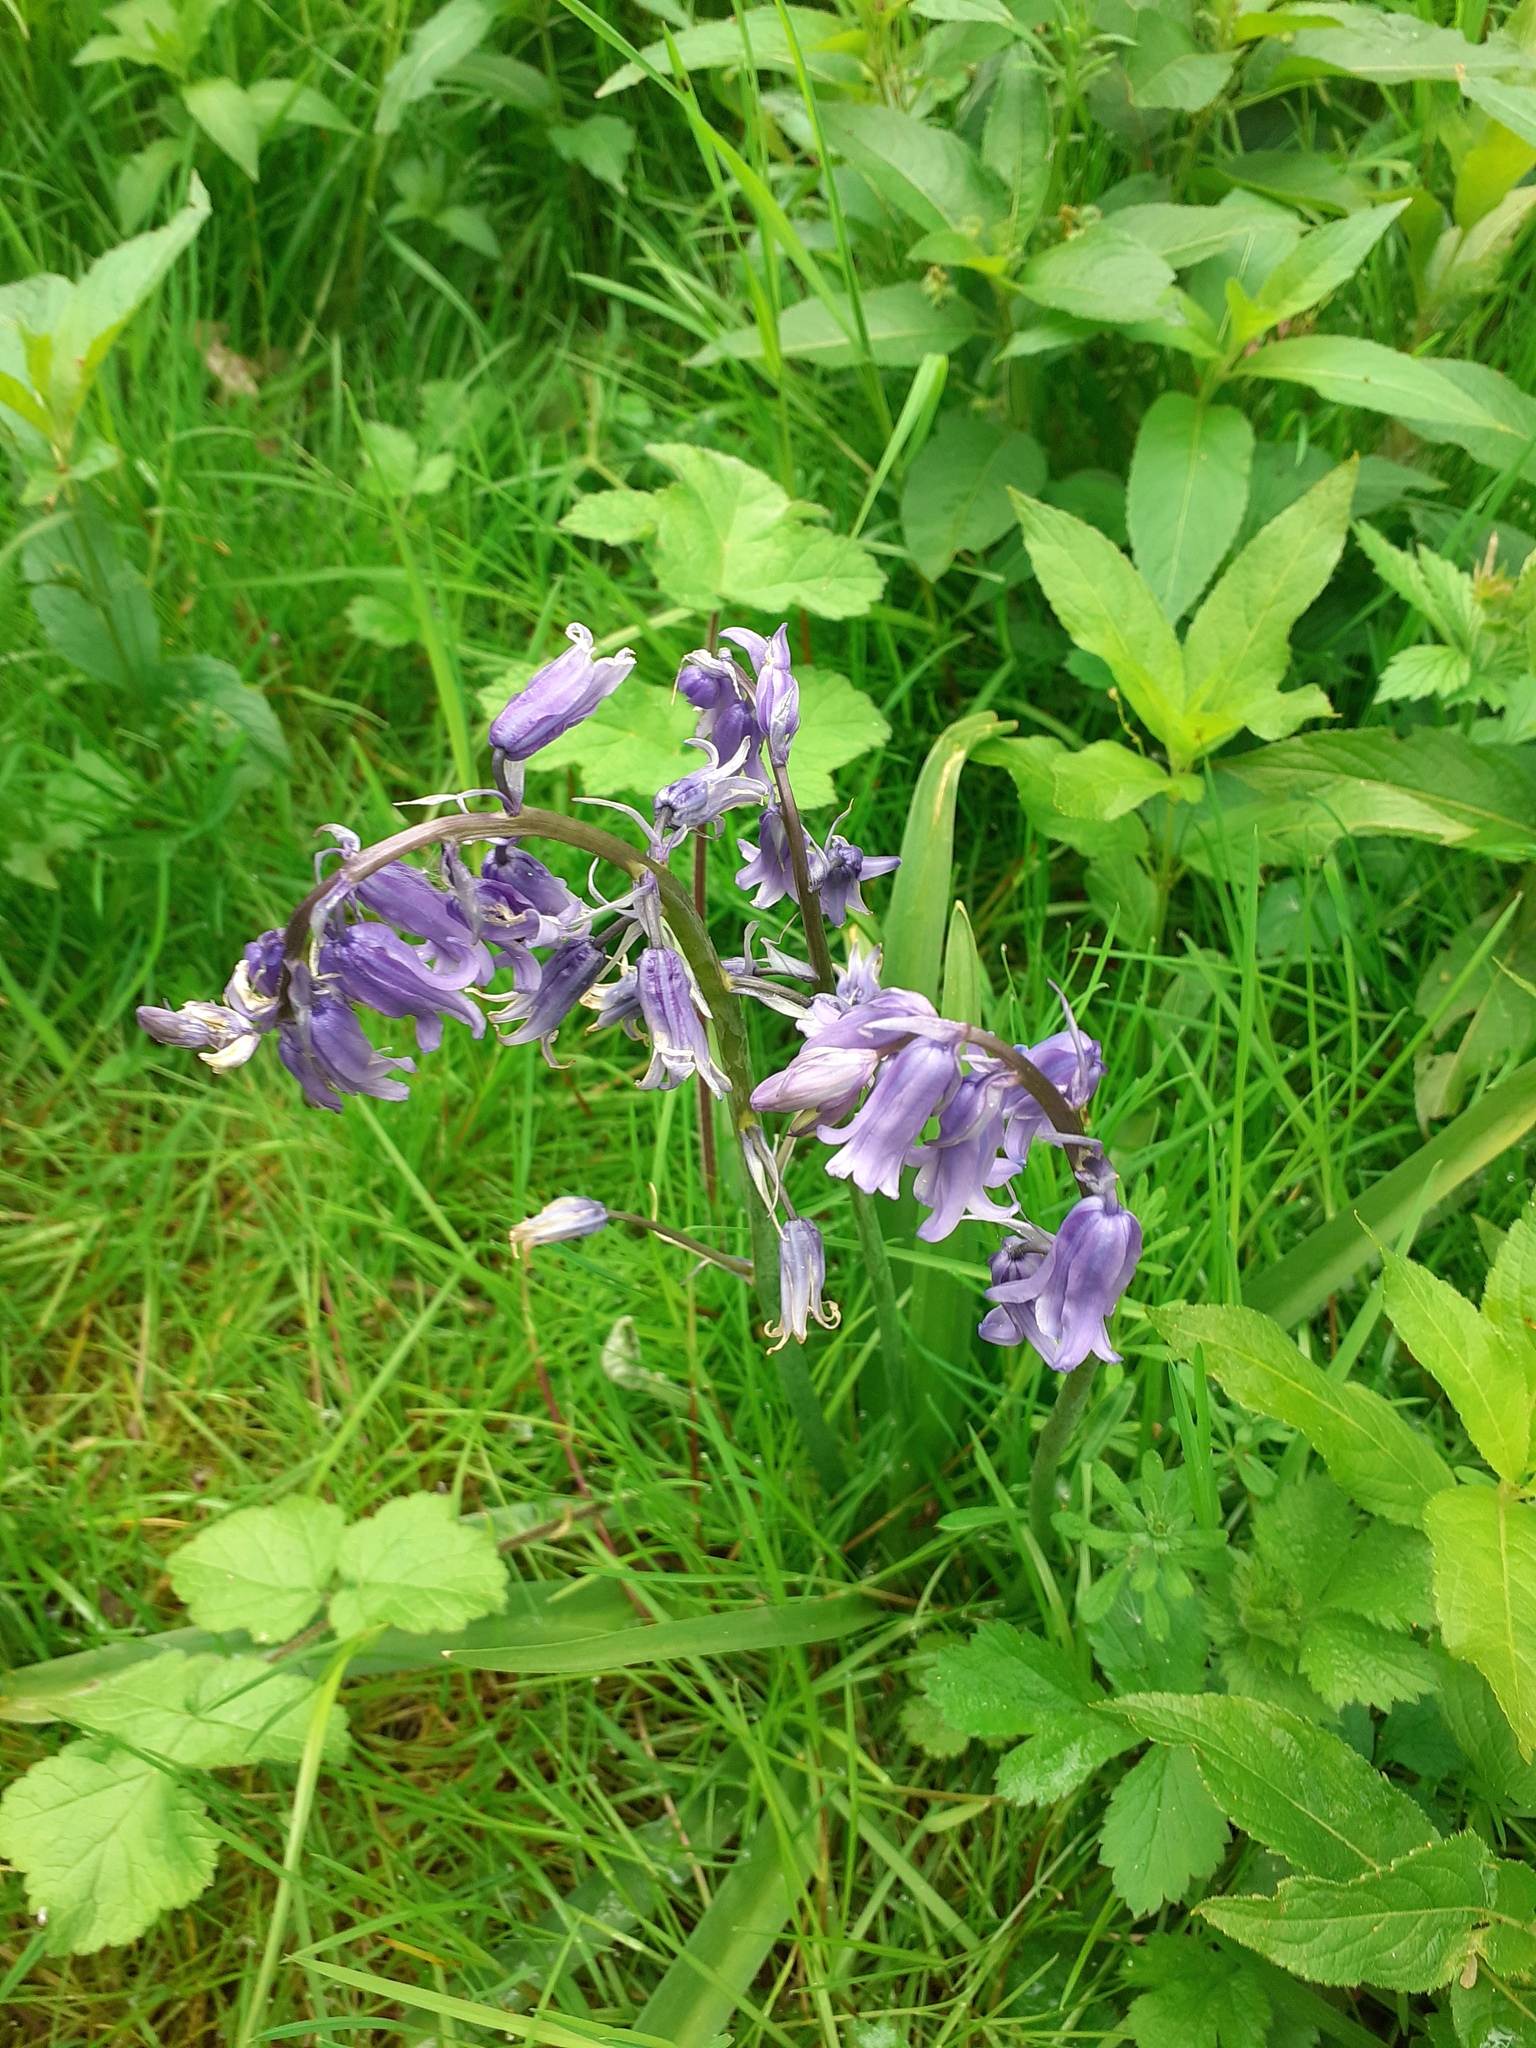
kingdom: Plantae
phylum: Tracheophyta
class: Liliopsida
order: Asparagales
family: Asparagaceae
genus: Hyacinthoides
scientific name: Hyacinthoides non-scripta
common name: Bluebell
